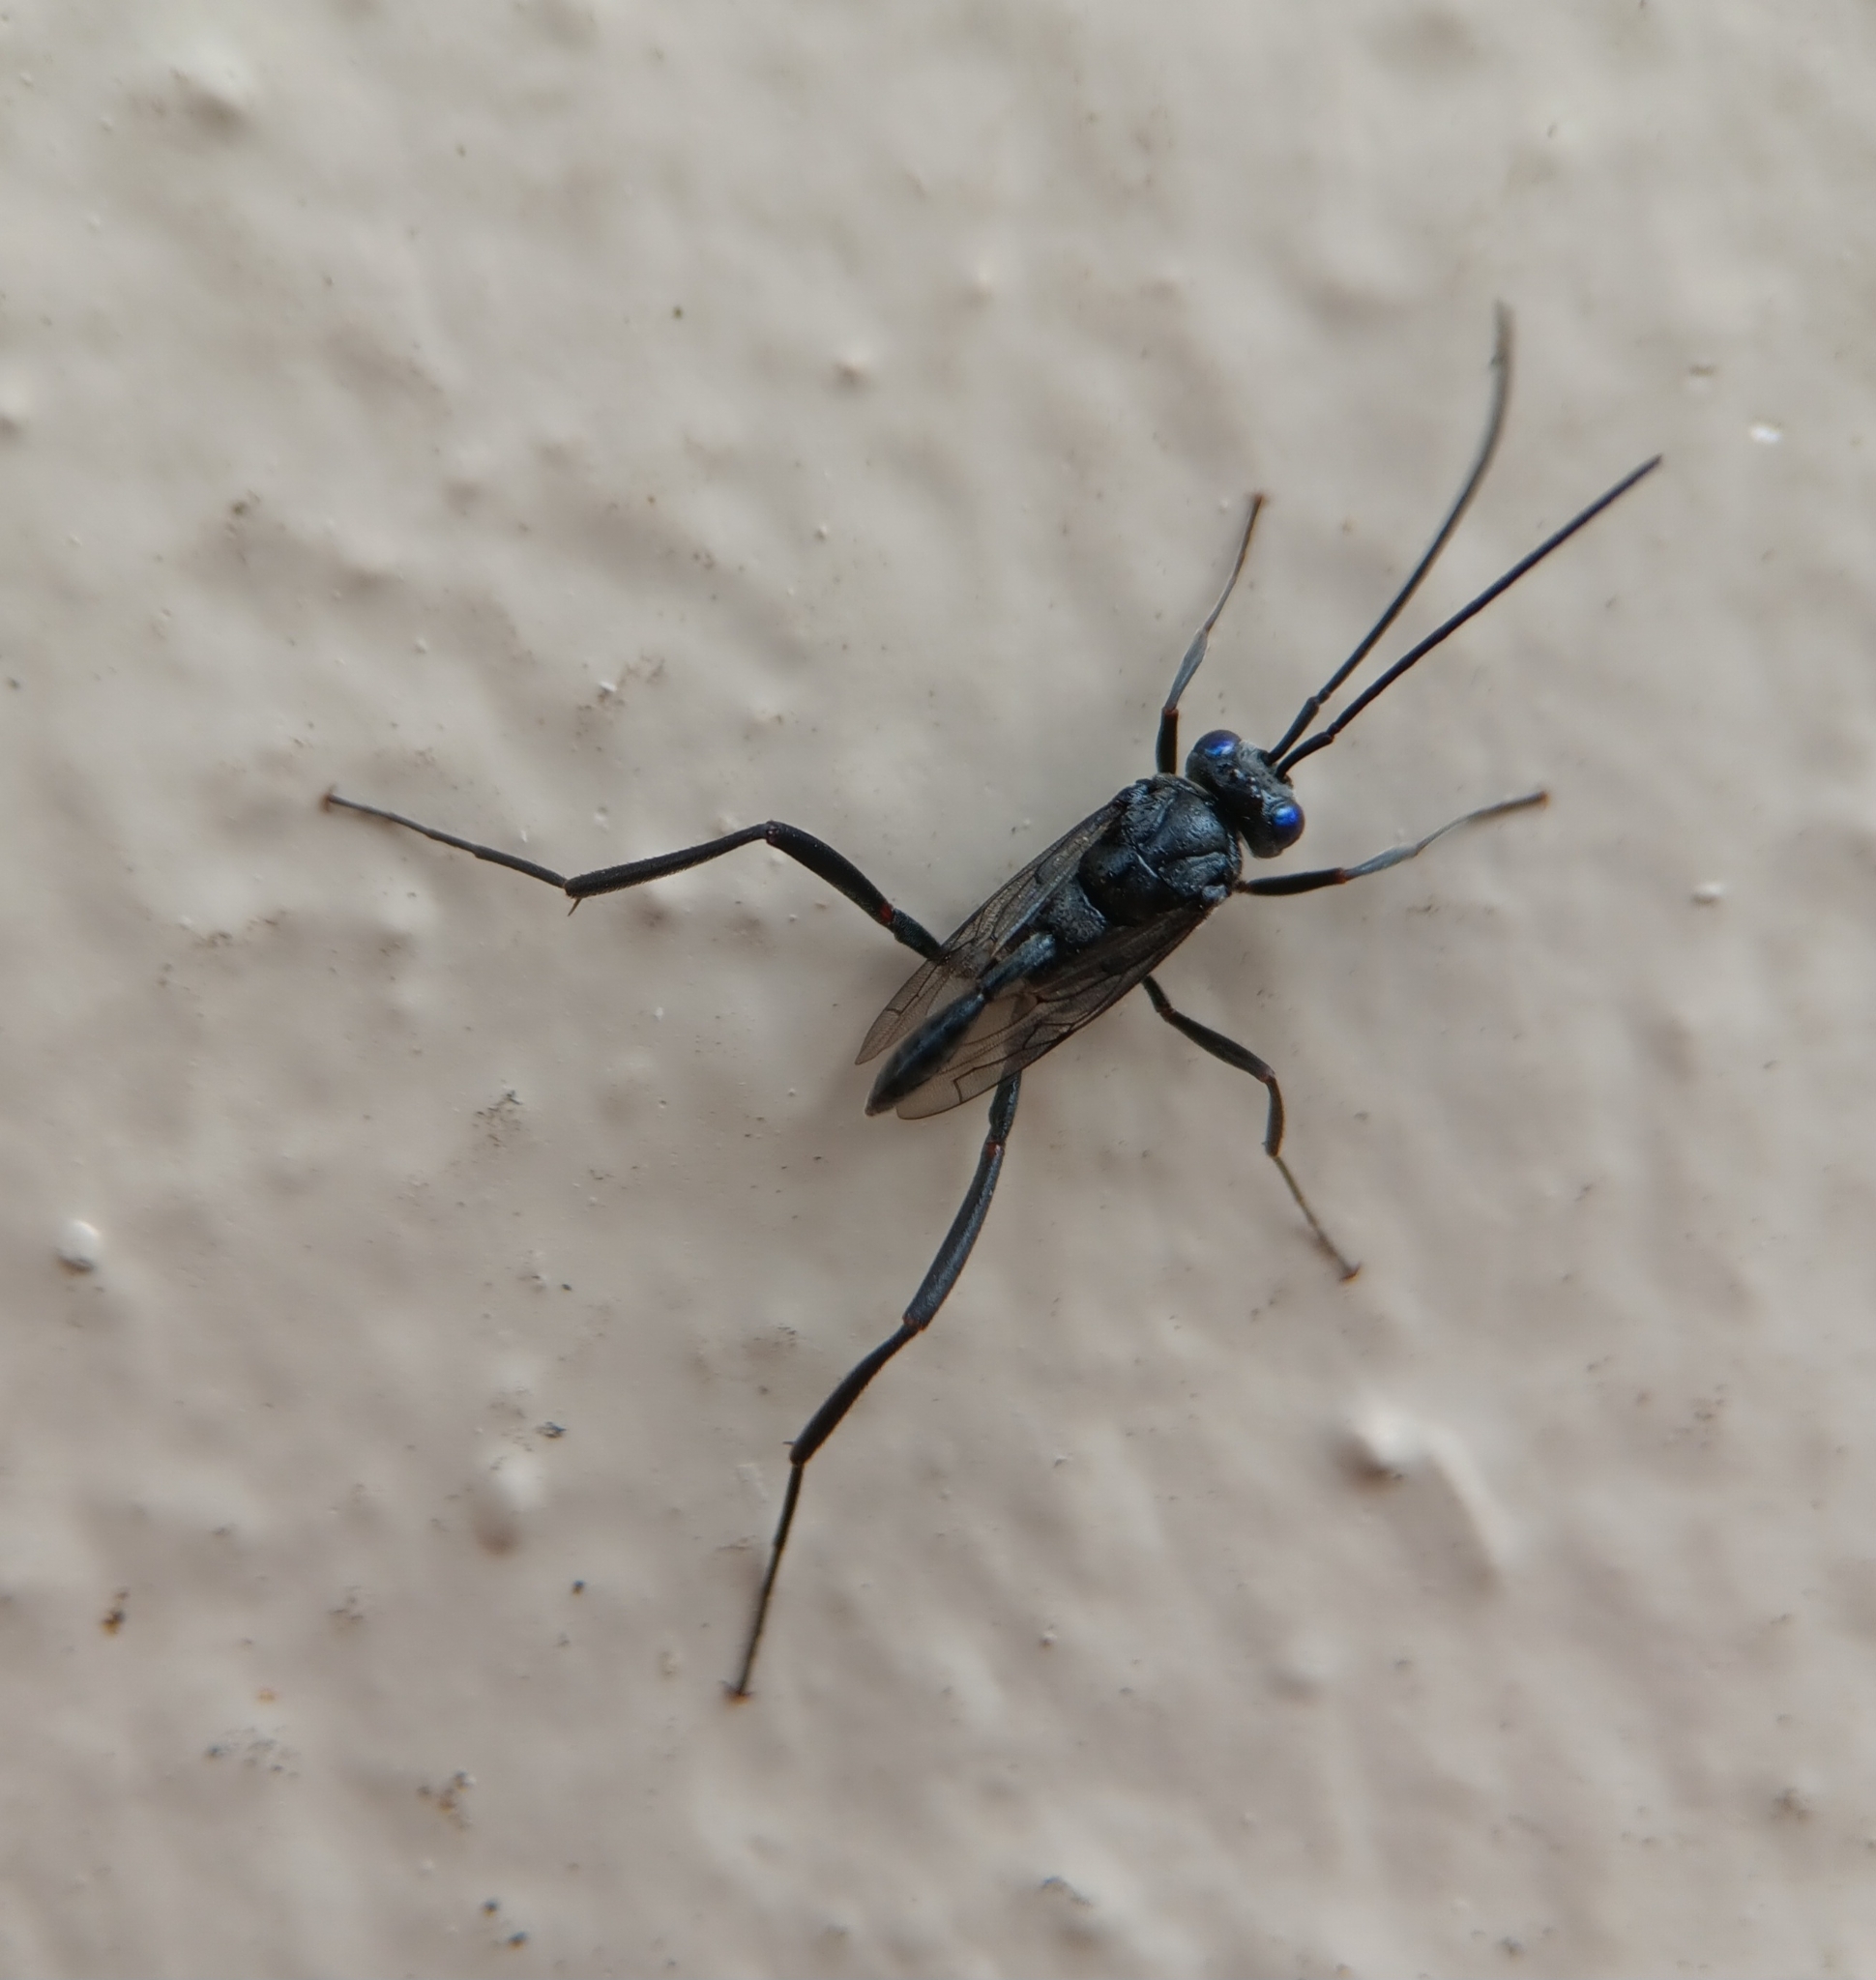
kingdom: Animalia
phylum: Arthropoda
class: Insecta
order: Hymenoptera
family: Evaniidae
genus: Evania
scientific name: Evania appendigaster
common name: Ensign wasp
